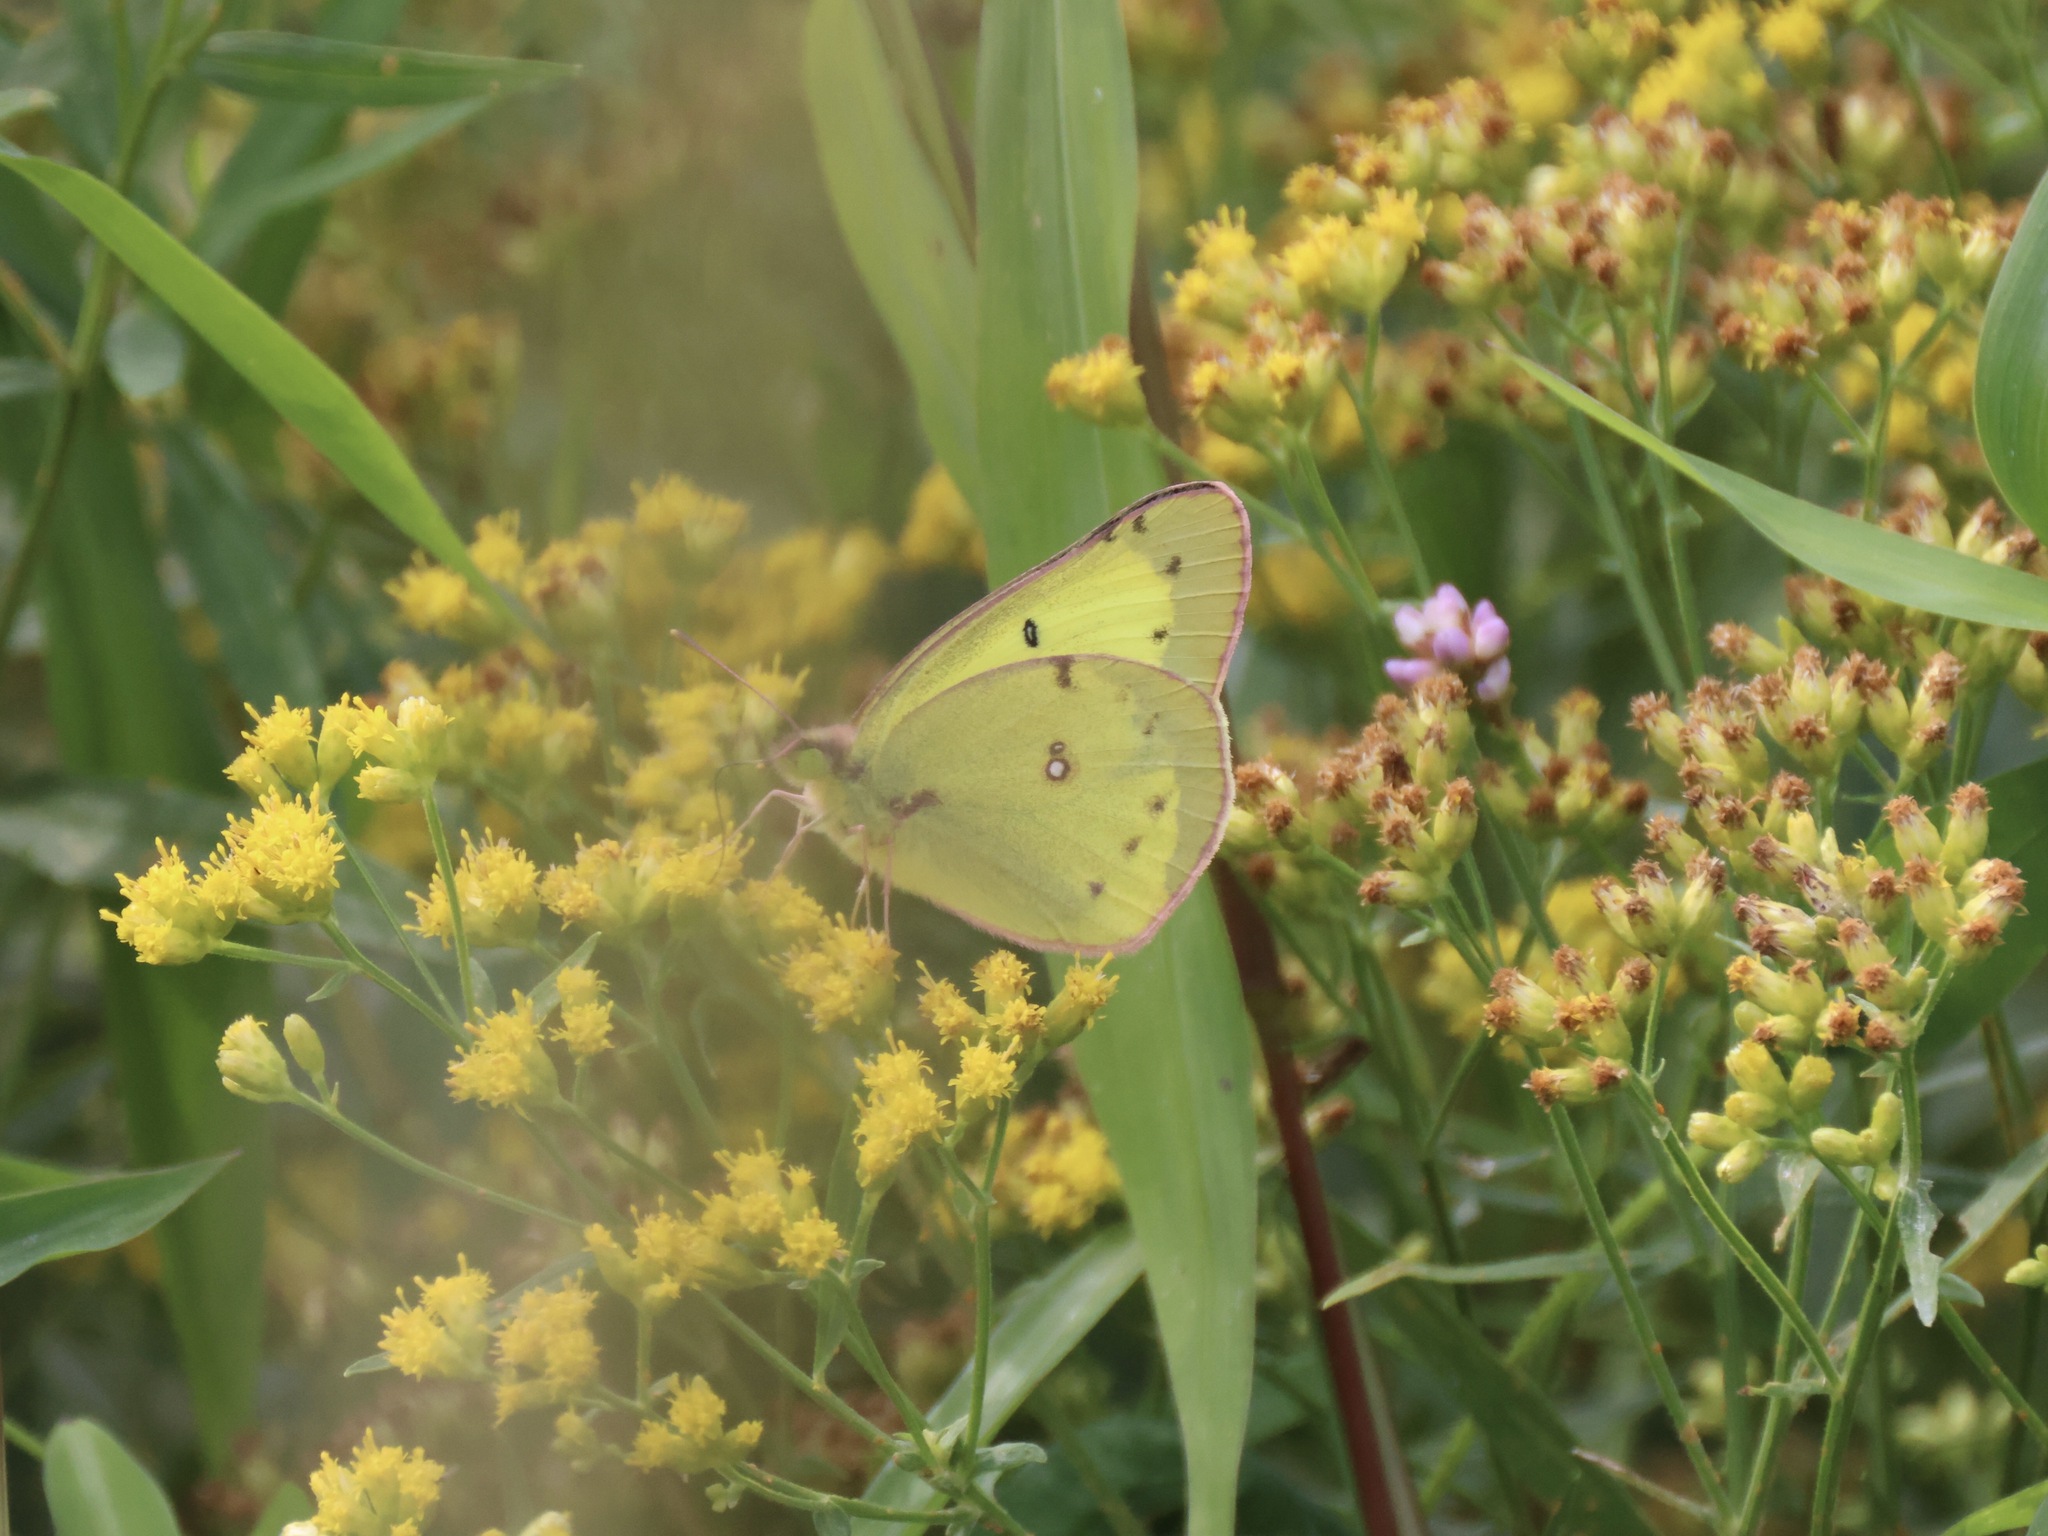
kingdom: Animalia
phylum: Arthropoda
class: Insecta
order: Lepidoptera
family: Pieridae
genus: Colias
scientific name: Colias philodice
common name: Clouded sulphur
